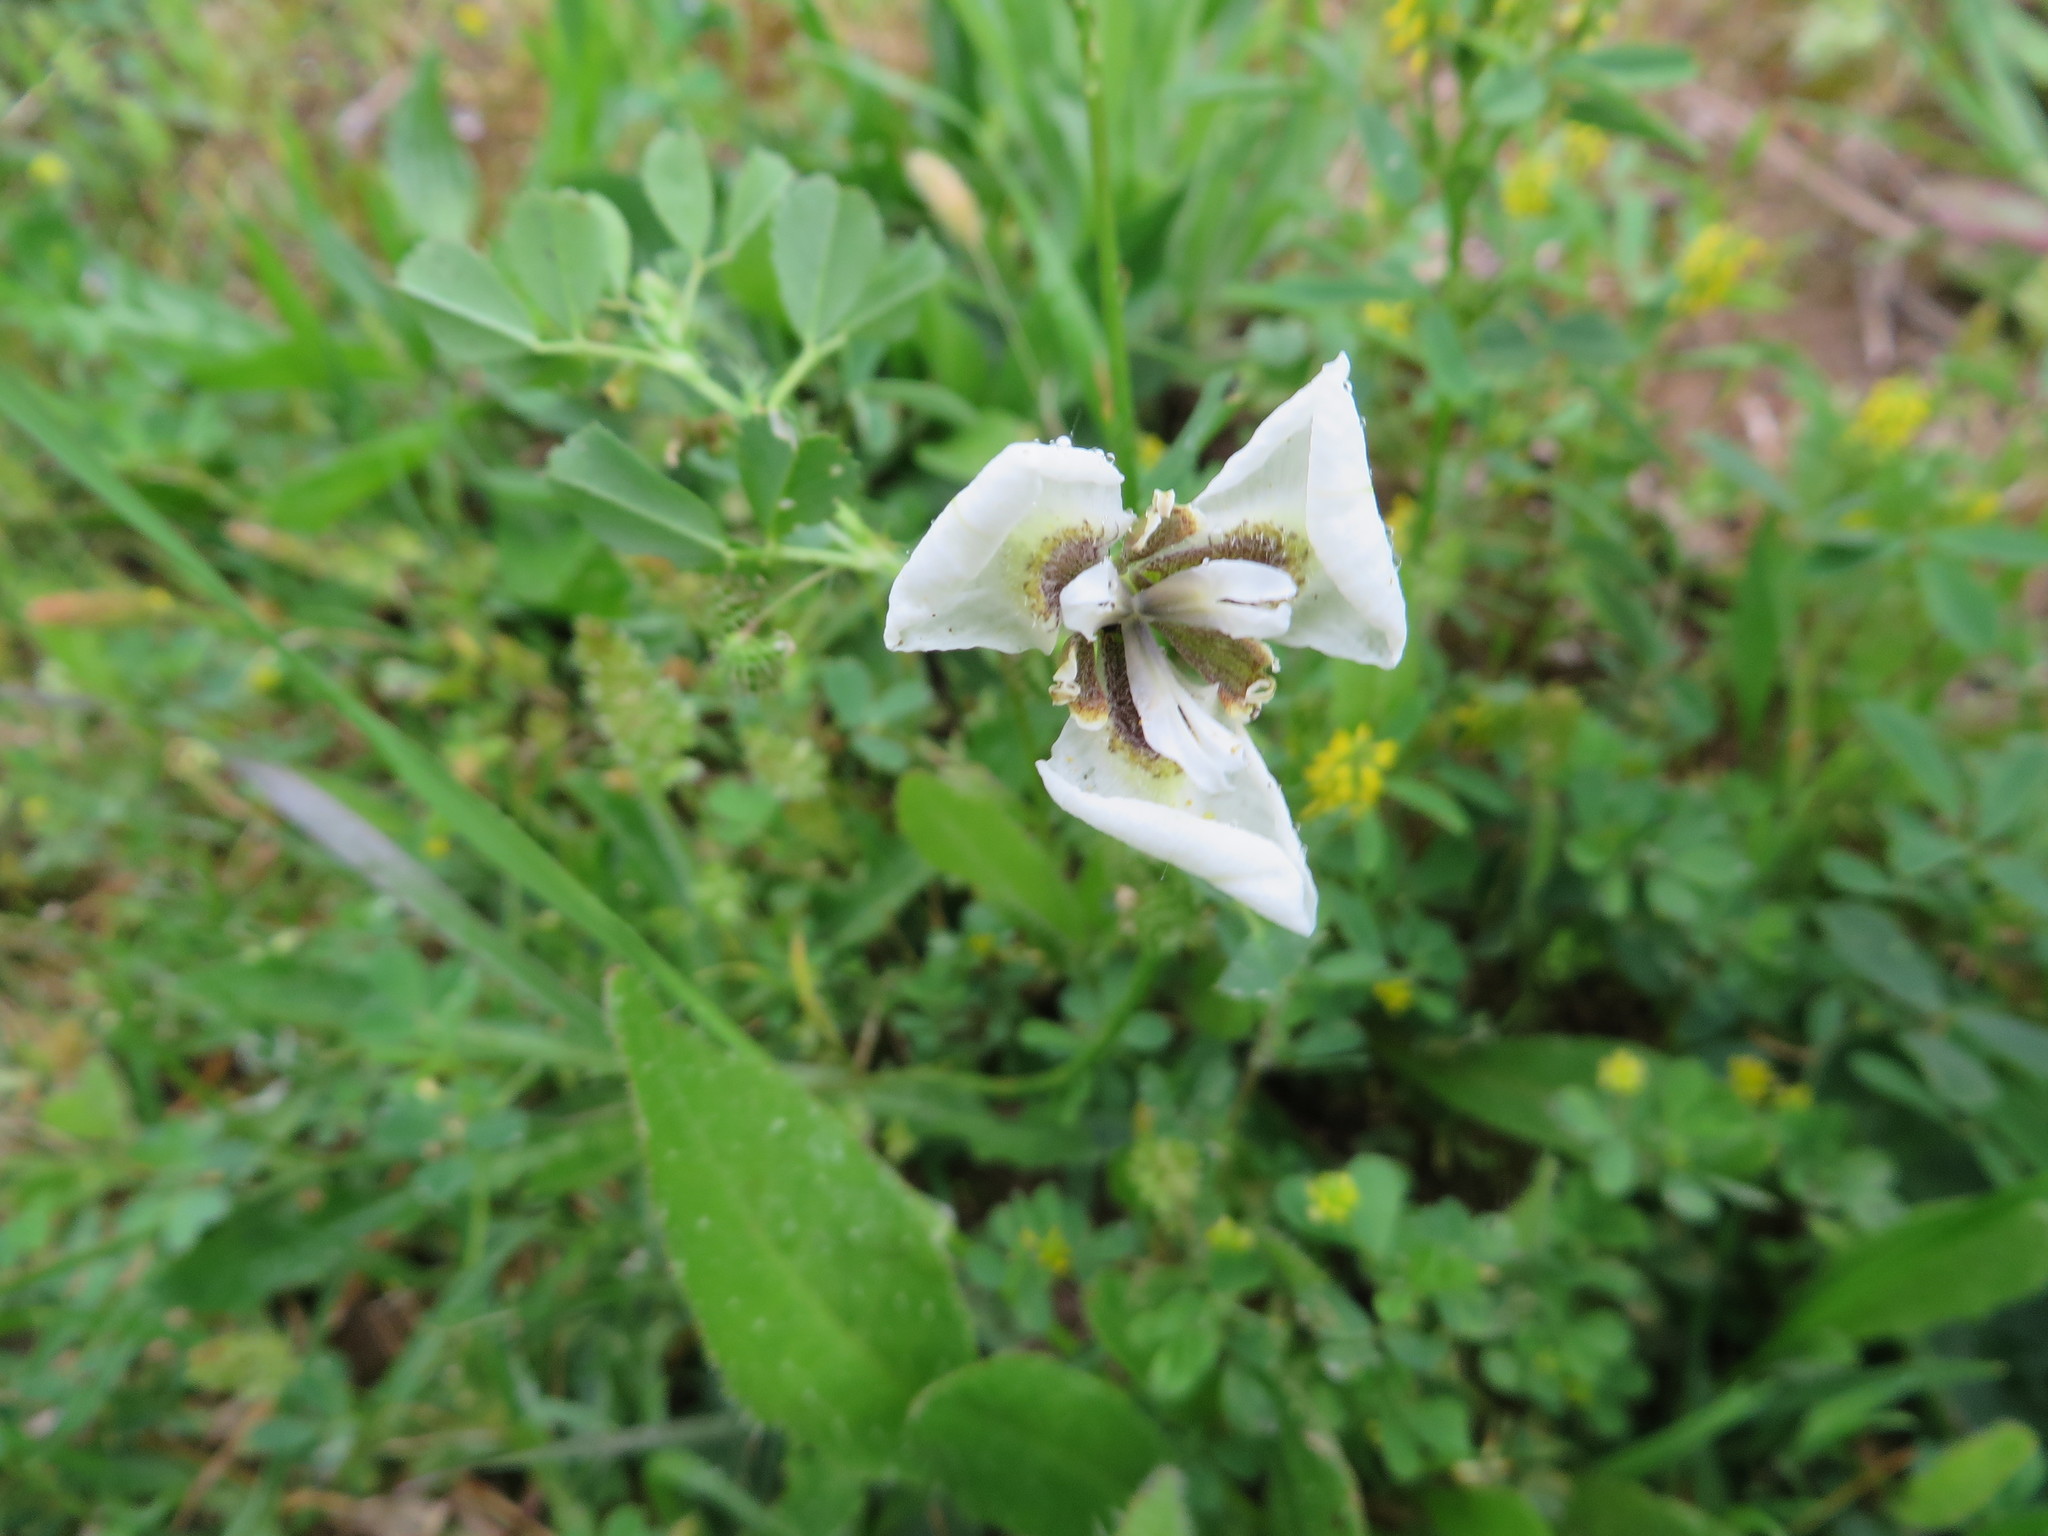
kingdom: Plantae
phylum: Tracheophyta
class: Liliopsida
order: Asparagales
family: Iridaceae
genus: Moraea
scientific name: Moraea bellendenii
